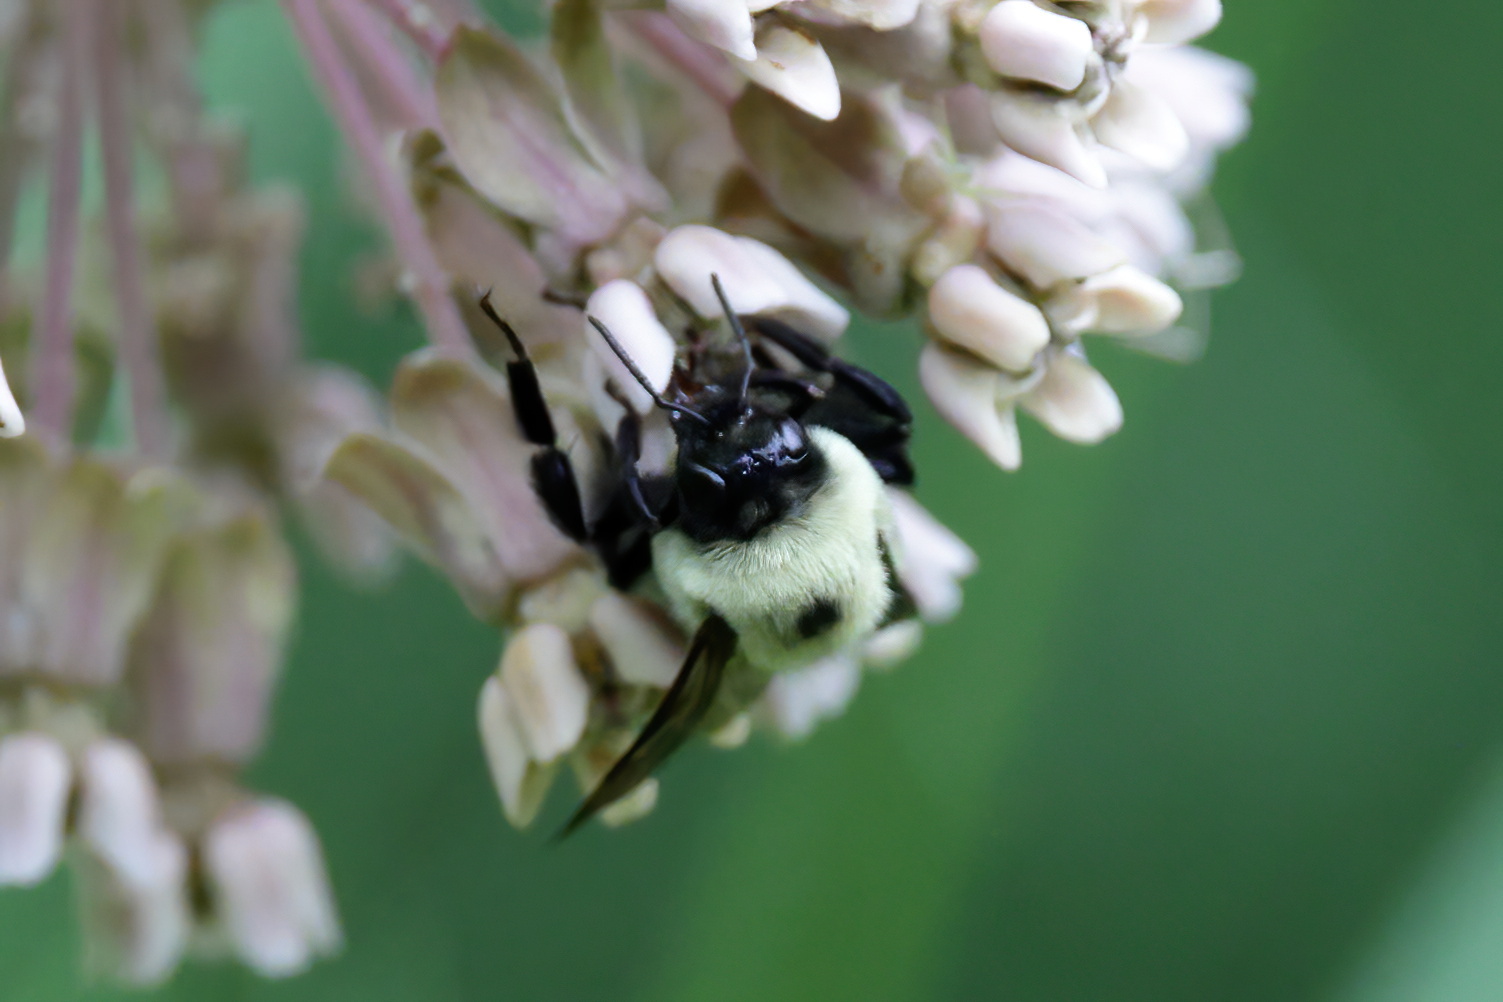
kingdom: Animalia
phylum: Arthropoda
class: Insecta
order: Hymenoptera
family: Apidae
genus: Bombus
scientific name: Bombus griseocollis
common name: Brown-belted bumble bee
